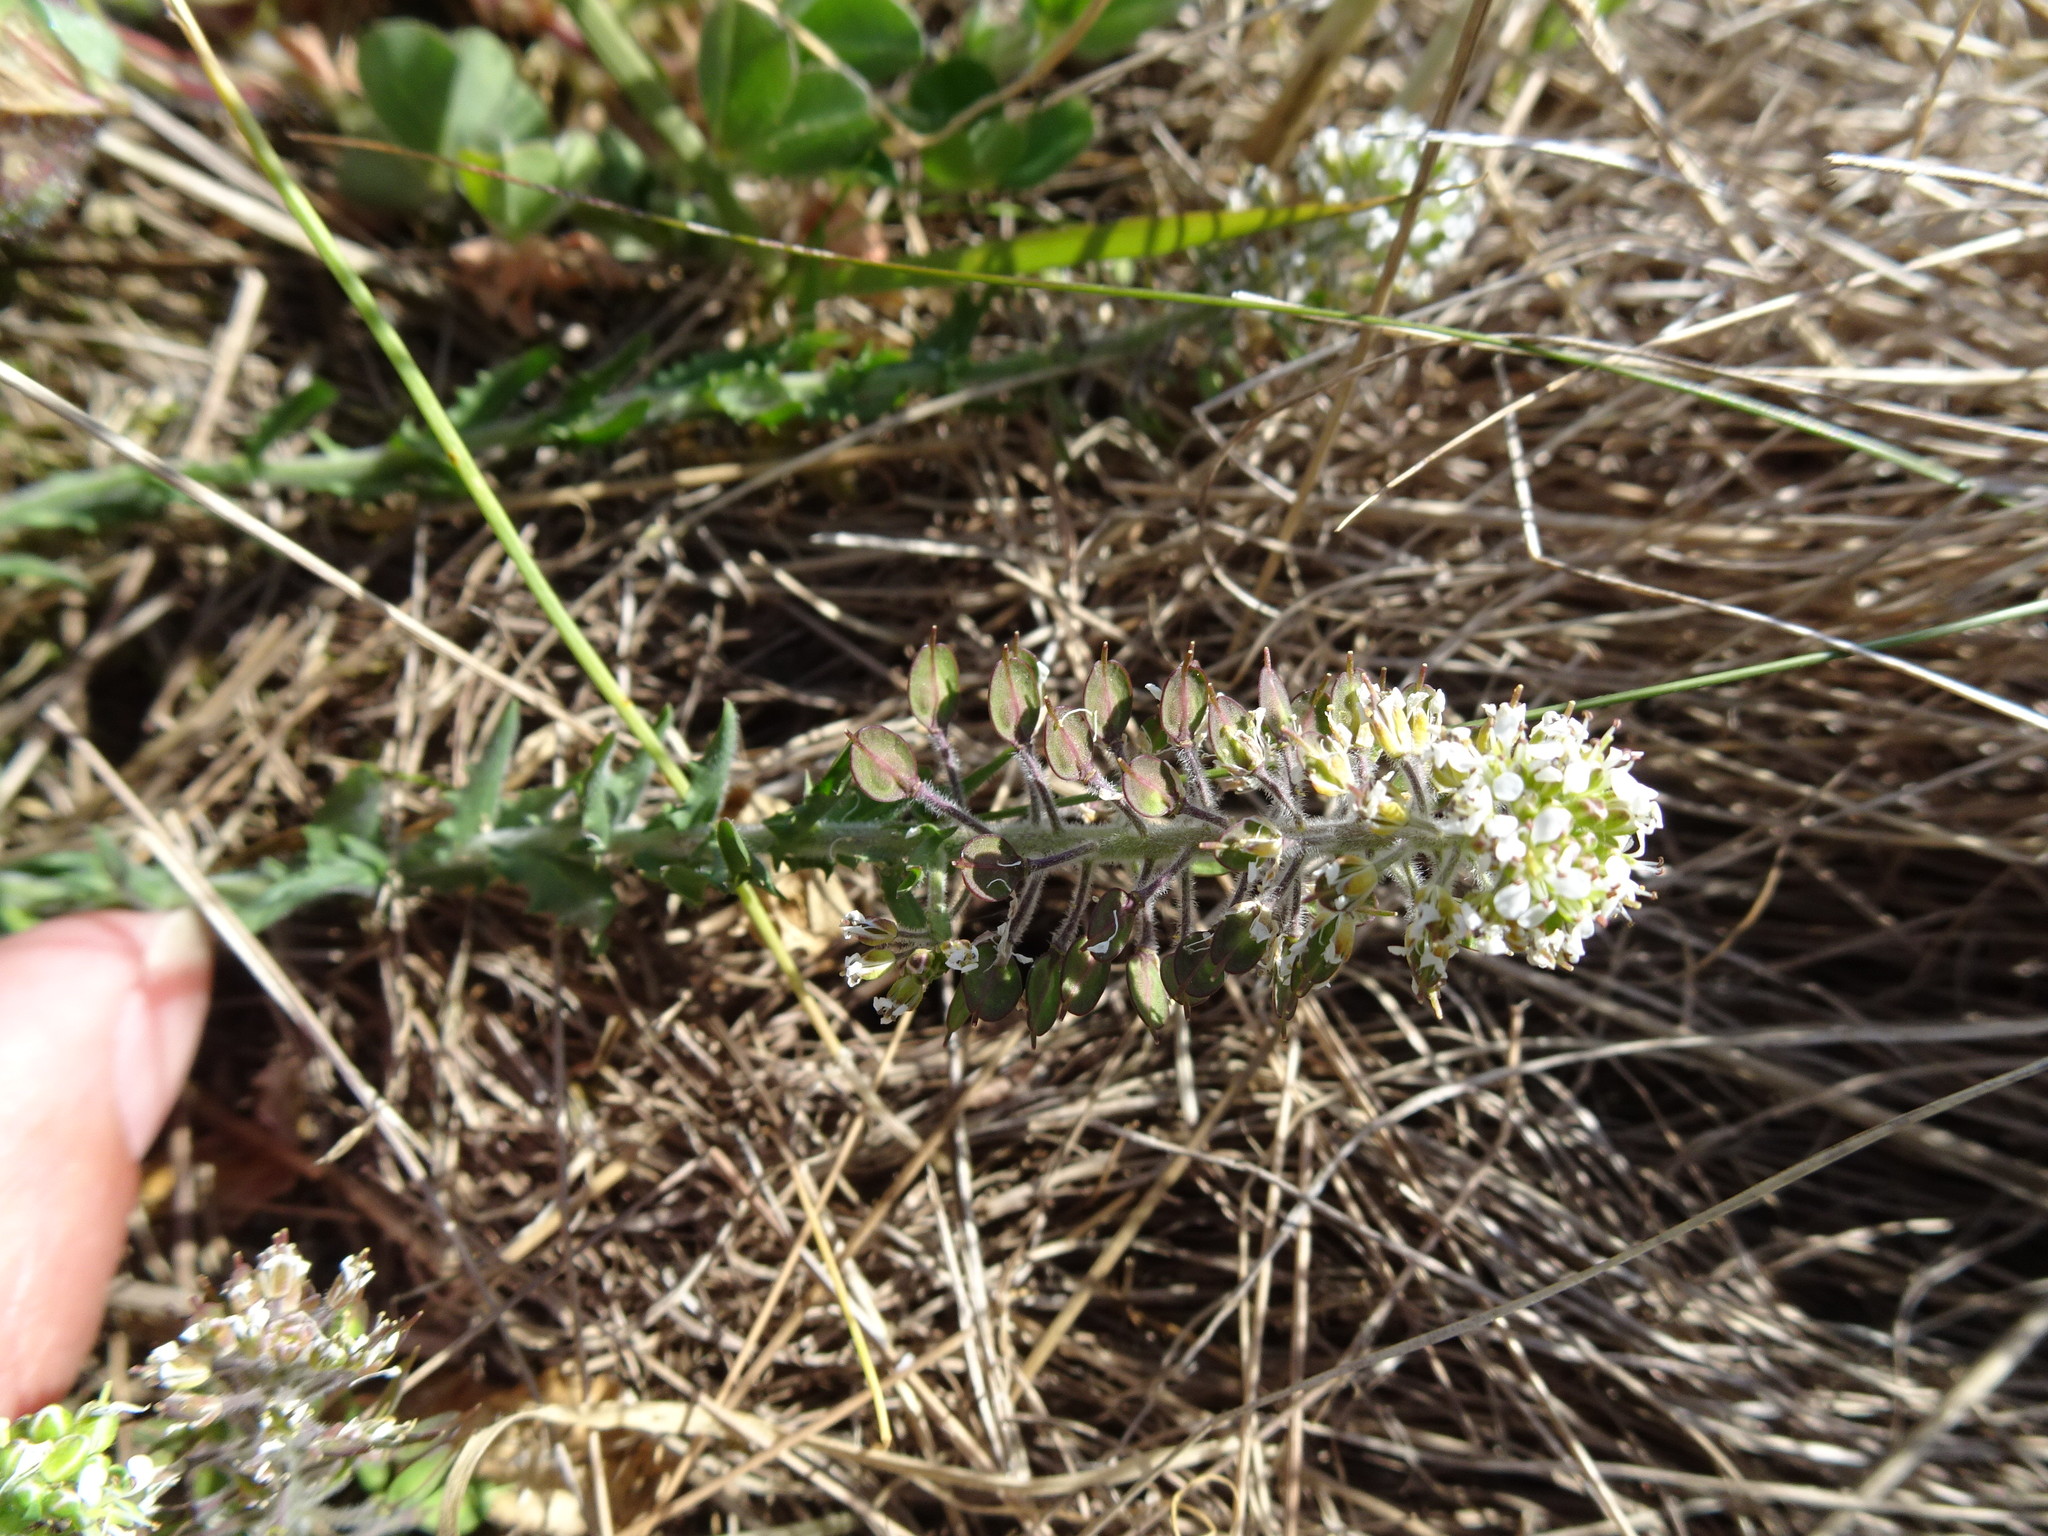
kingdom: Plantae
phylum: Tracheophyta
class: Magnoliopsida
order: Brassicales
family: Brassicaceae
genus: Lepidium
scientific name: Lepidium heterophyllum
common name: Smith's pepperwort
